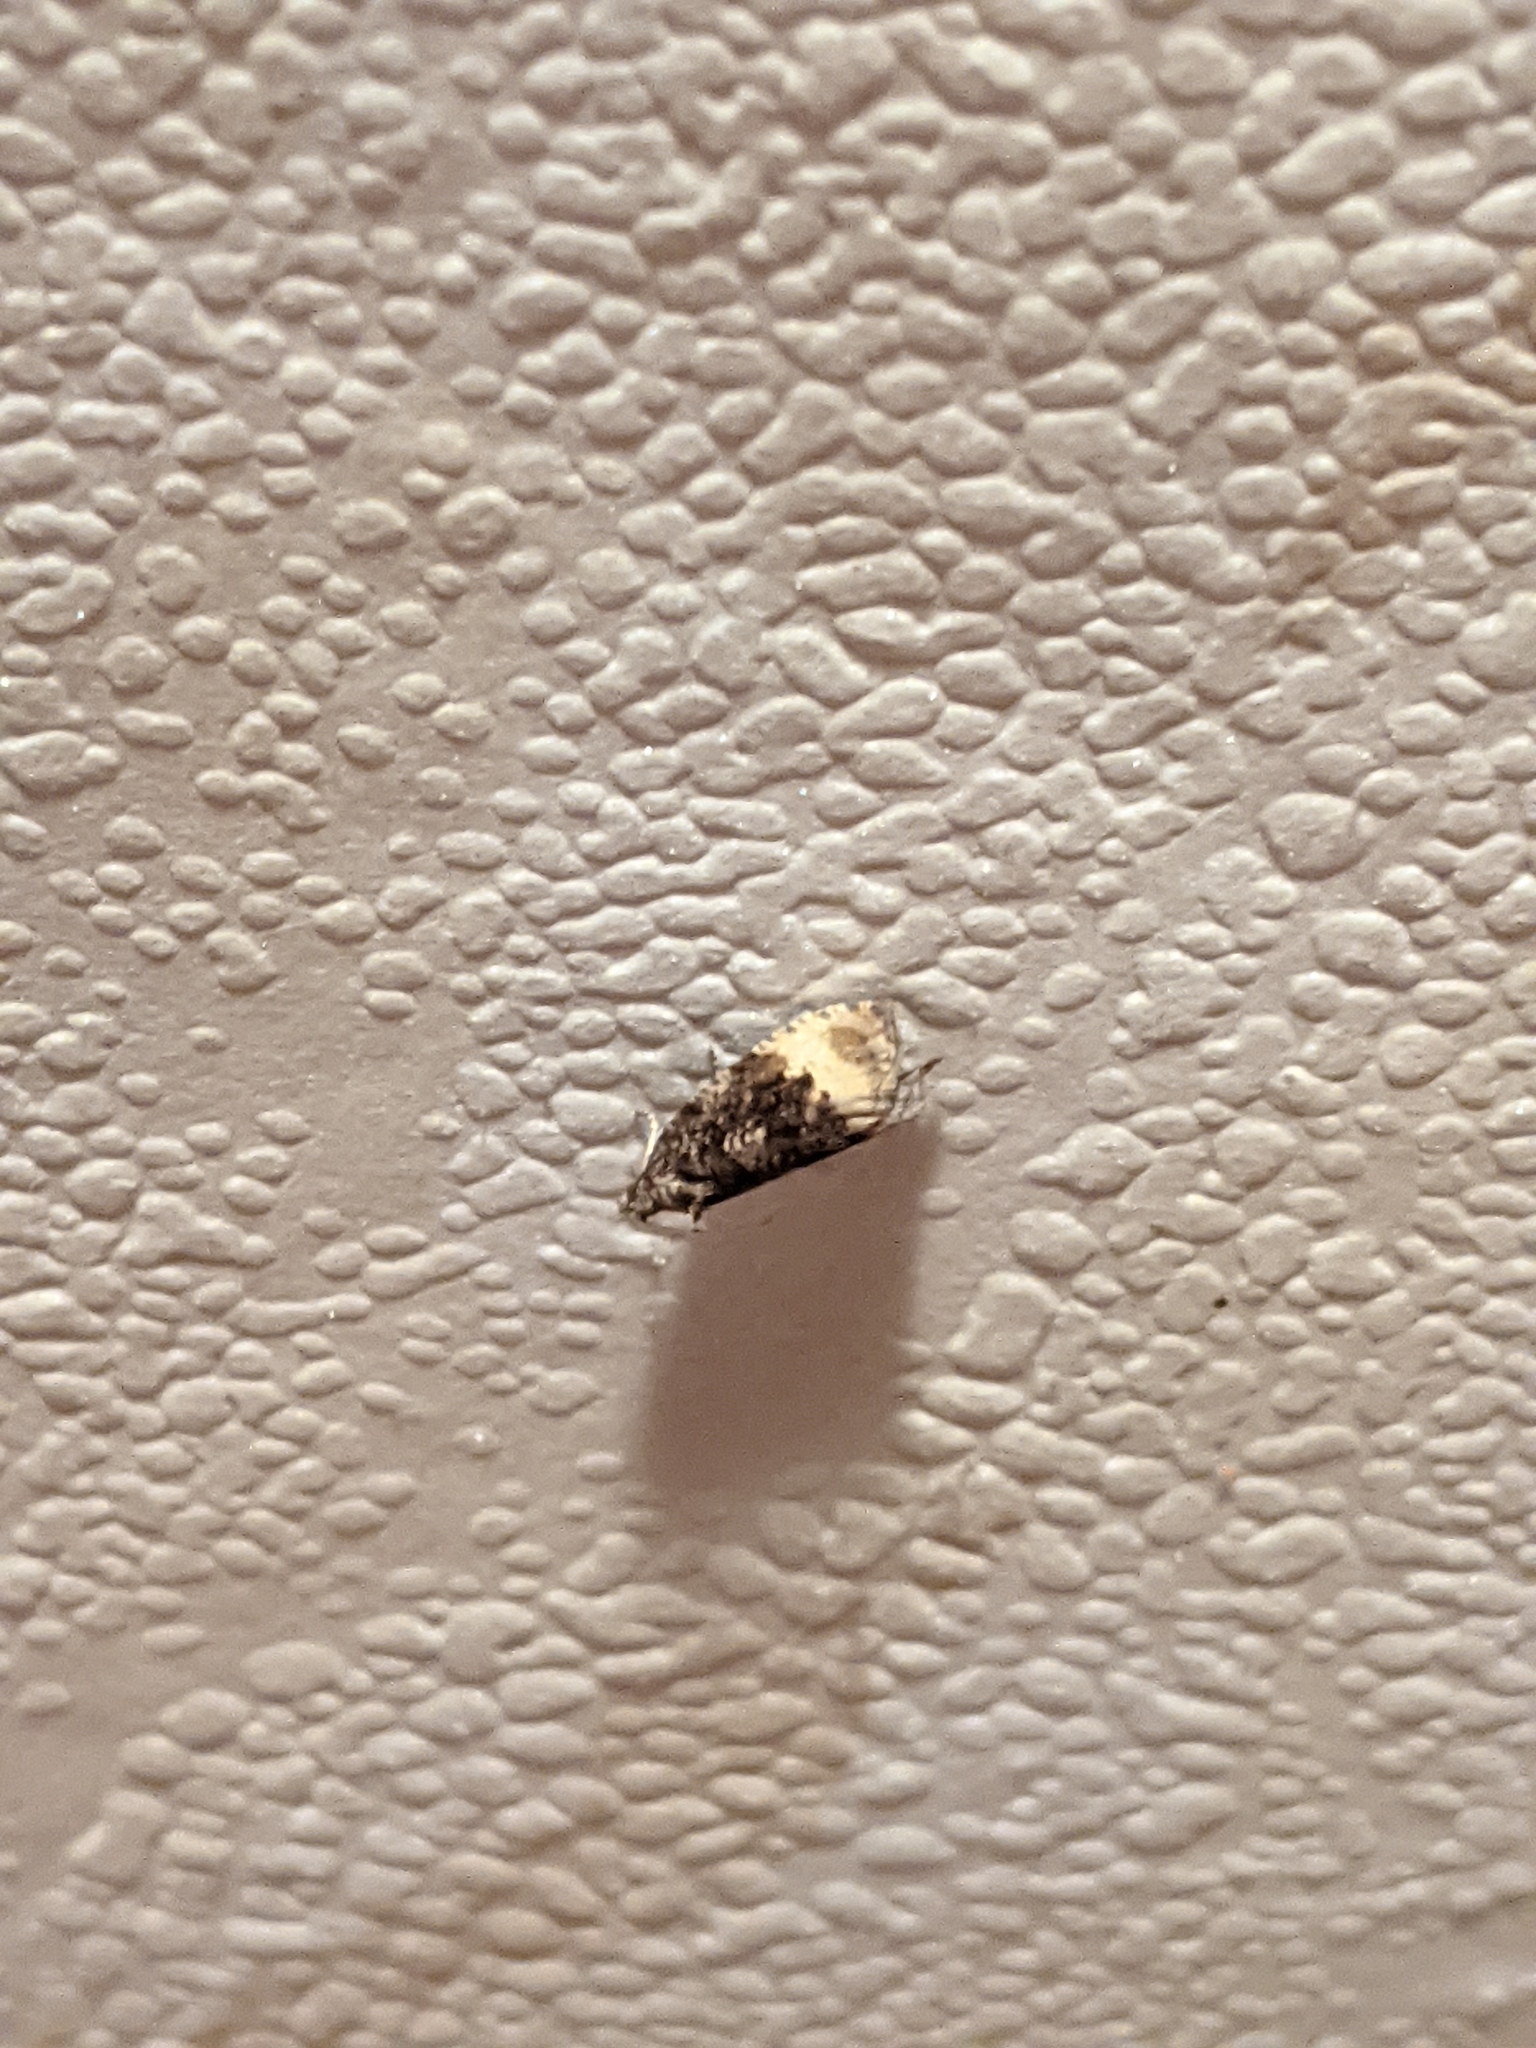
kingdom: Animalia
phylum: Arthropoda
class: Insecta
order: Lepidoptera
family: Tortricidae
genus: Hedya
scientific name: Hedya nubiferana
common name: Marbled orchard tortrix
